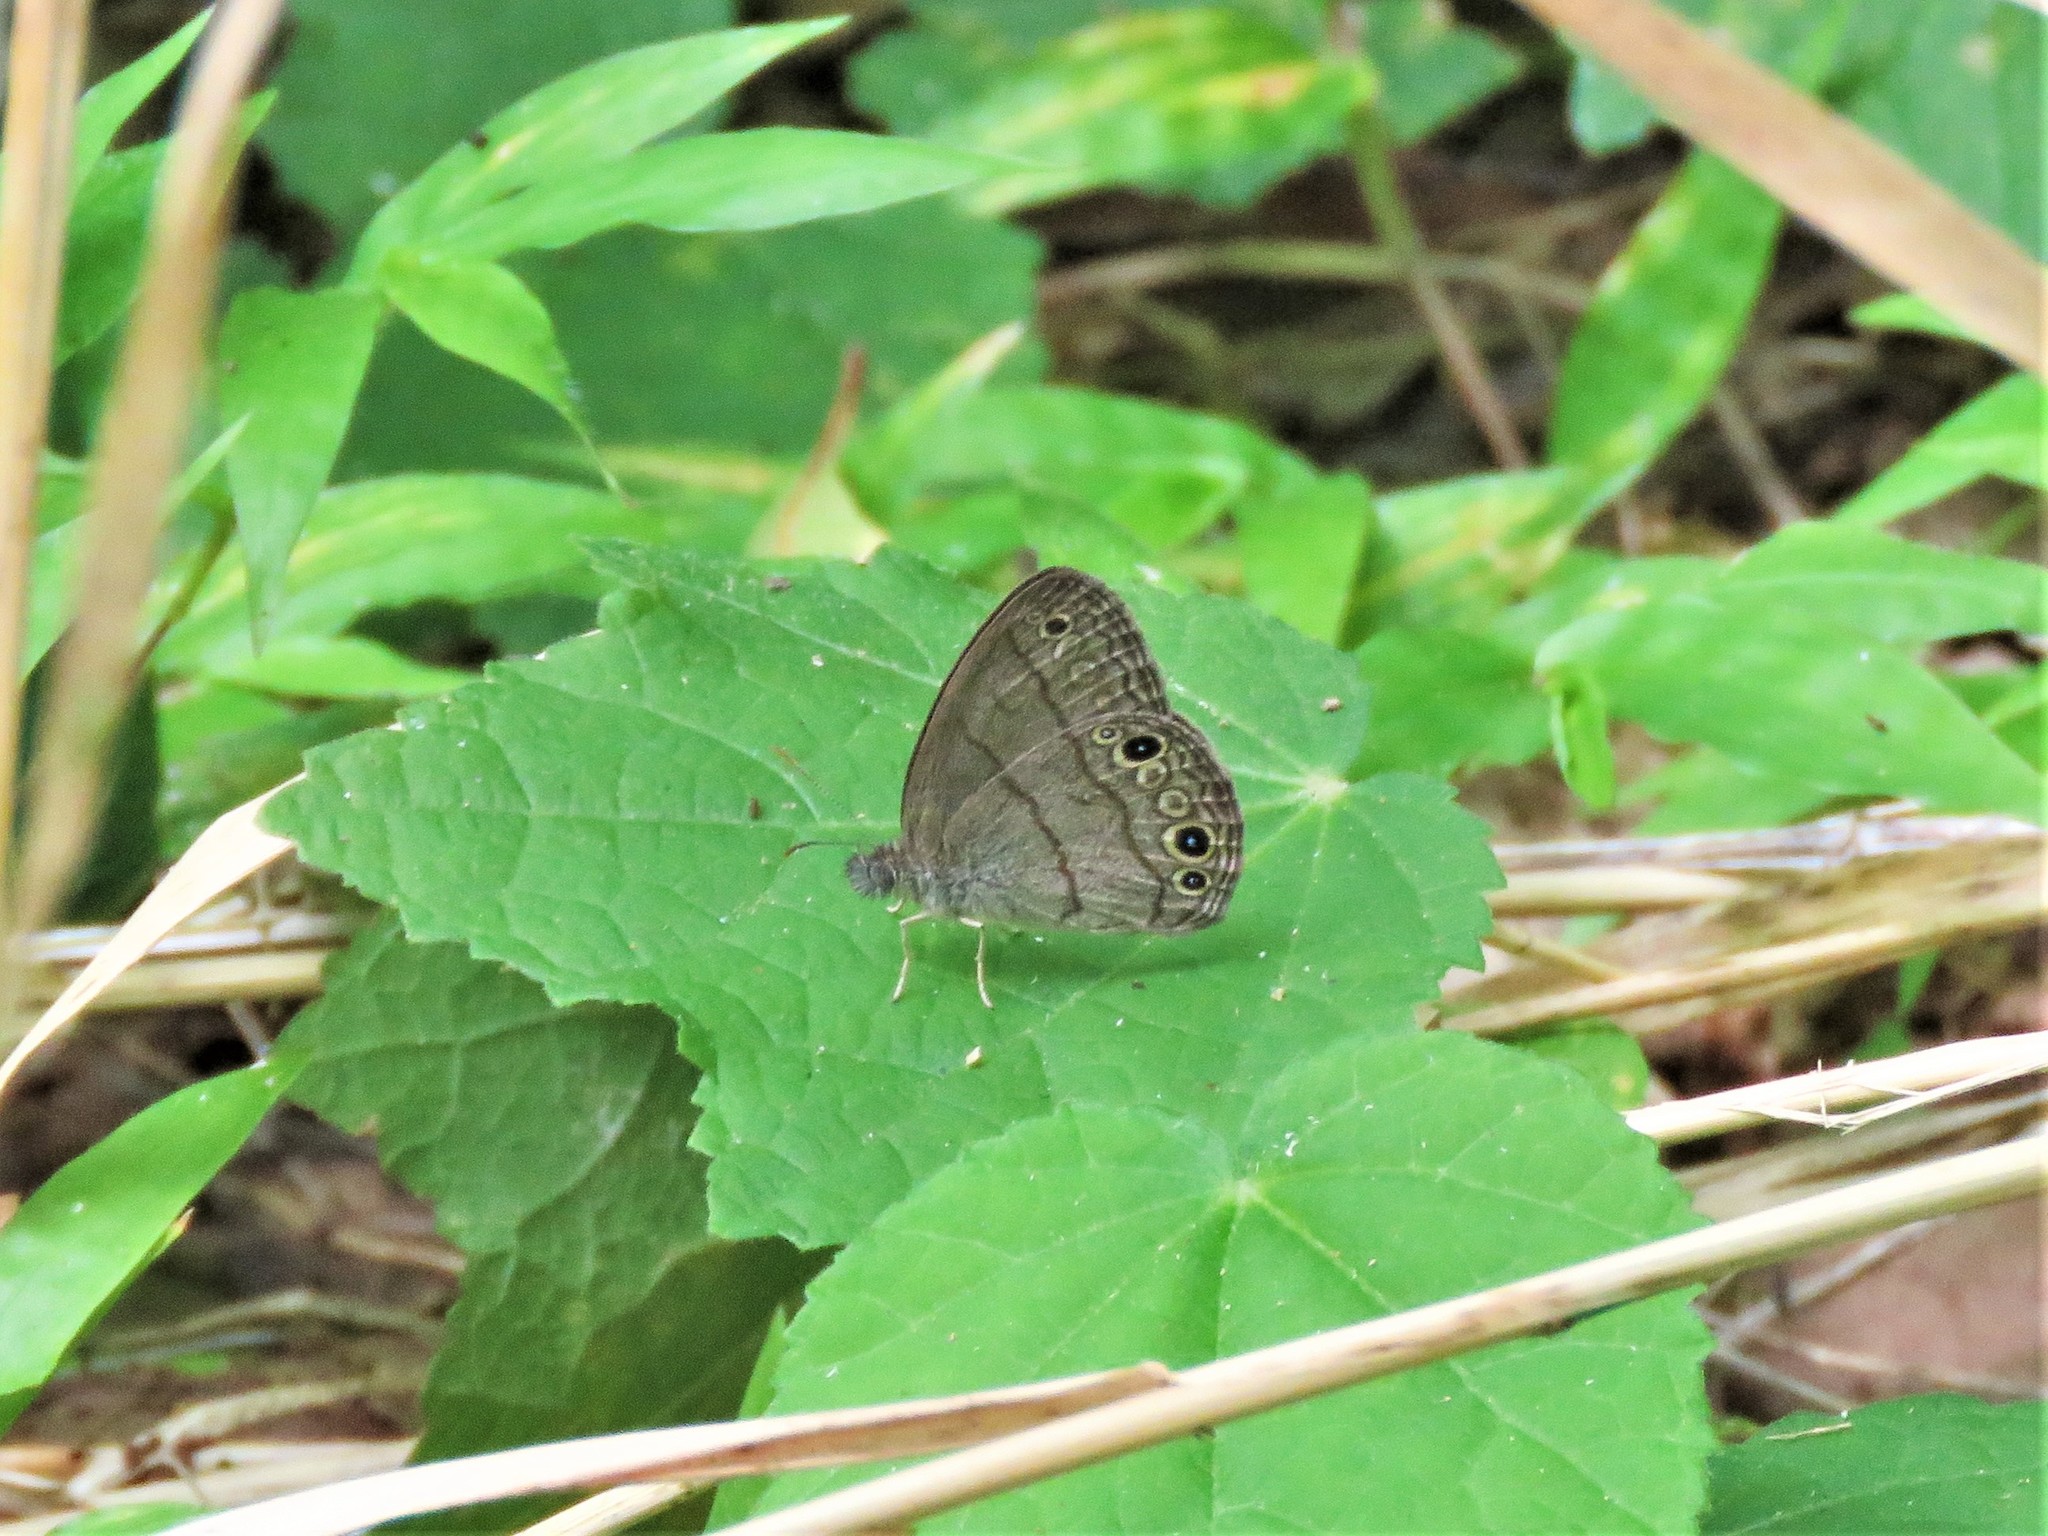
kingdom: Animalia
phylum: Arthropoda
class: Insecta
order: Lepidoptera
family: Nymphalidae
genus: Hermeuptychia
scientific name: Hermeuptychia hermes
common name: Hermes satyr
